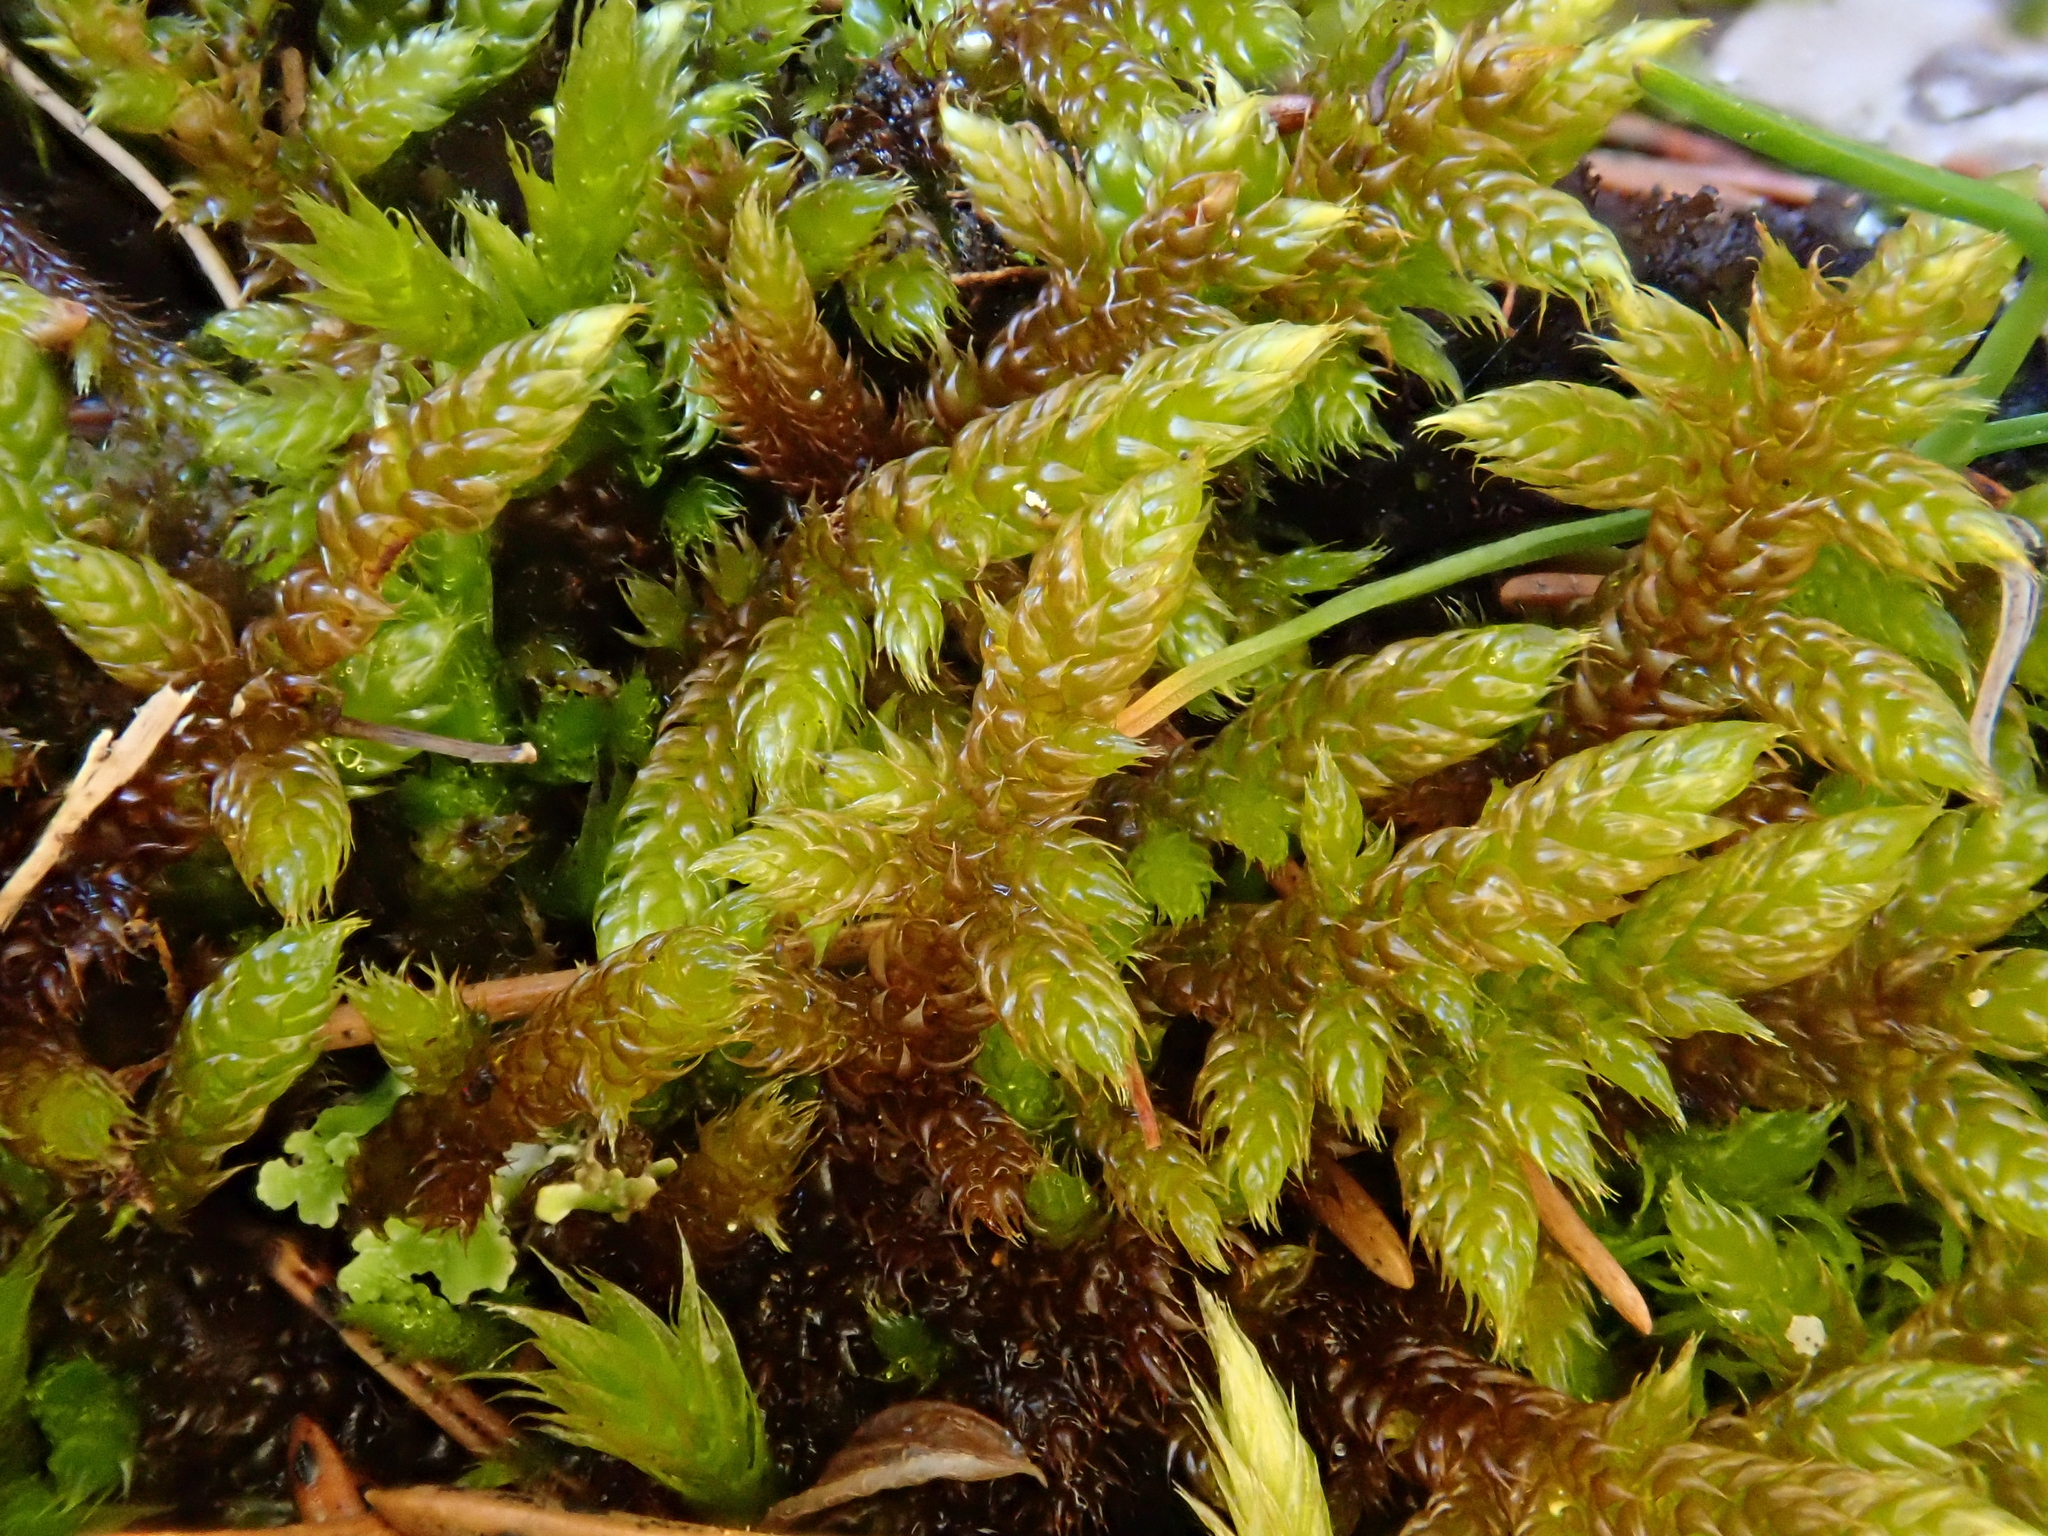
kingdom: Plantae
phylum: Bryophyta
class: Bryopsida
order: Hypnales
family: Hypnaceae
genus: Hypnum
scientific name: Hypnum cupressiforme
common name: Cypress-leaved plait-moss
